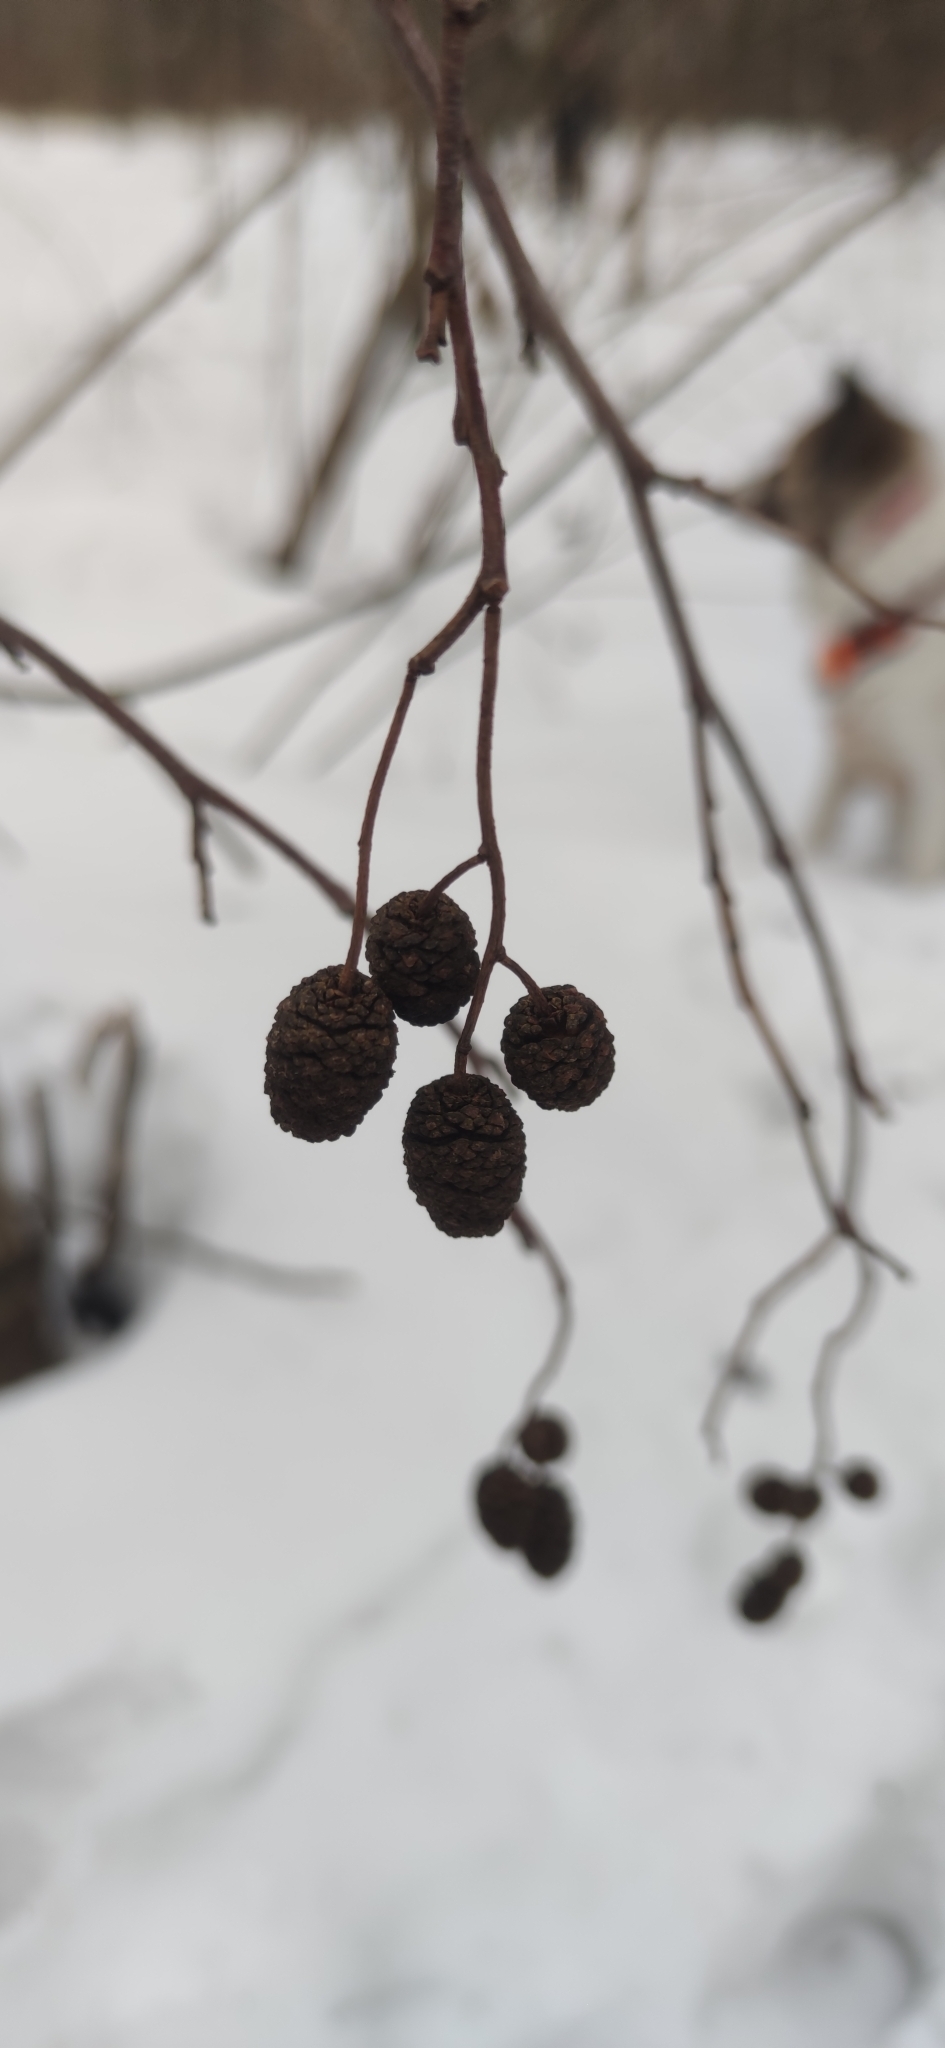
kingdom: Plantae
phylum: Tracheophyta
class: Magnoliopsida
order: Fagales
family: Betulaceae
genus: Alnus
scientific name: Alnus incana
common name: Grey alder
